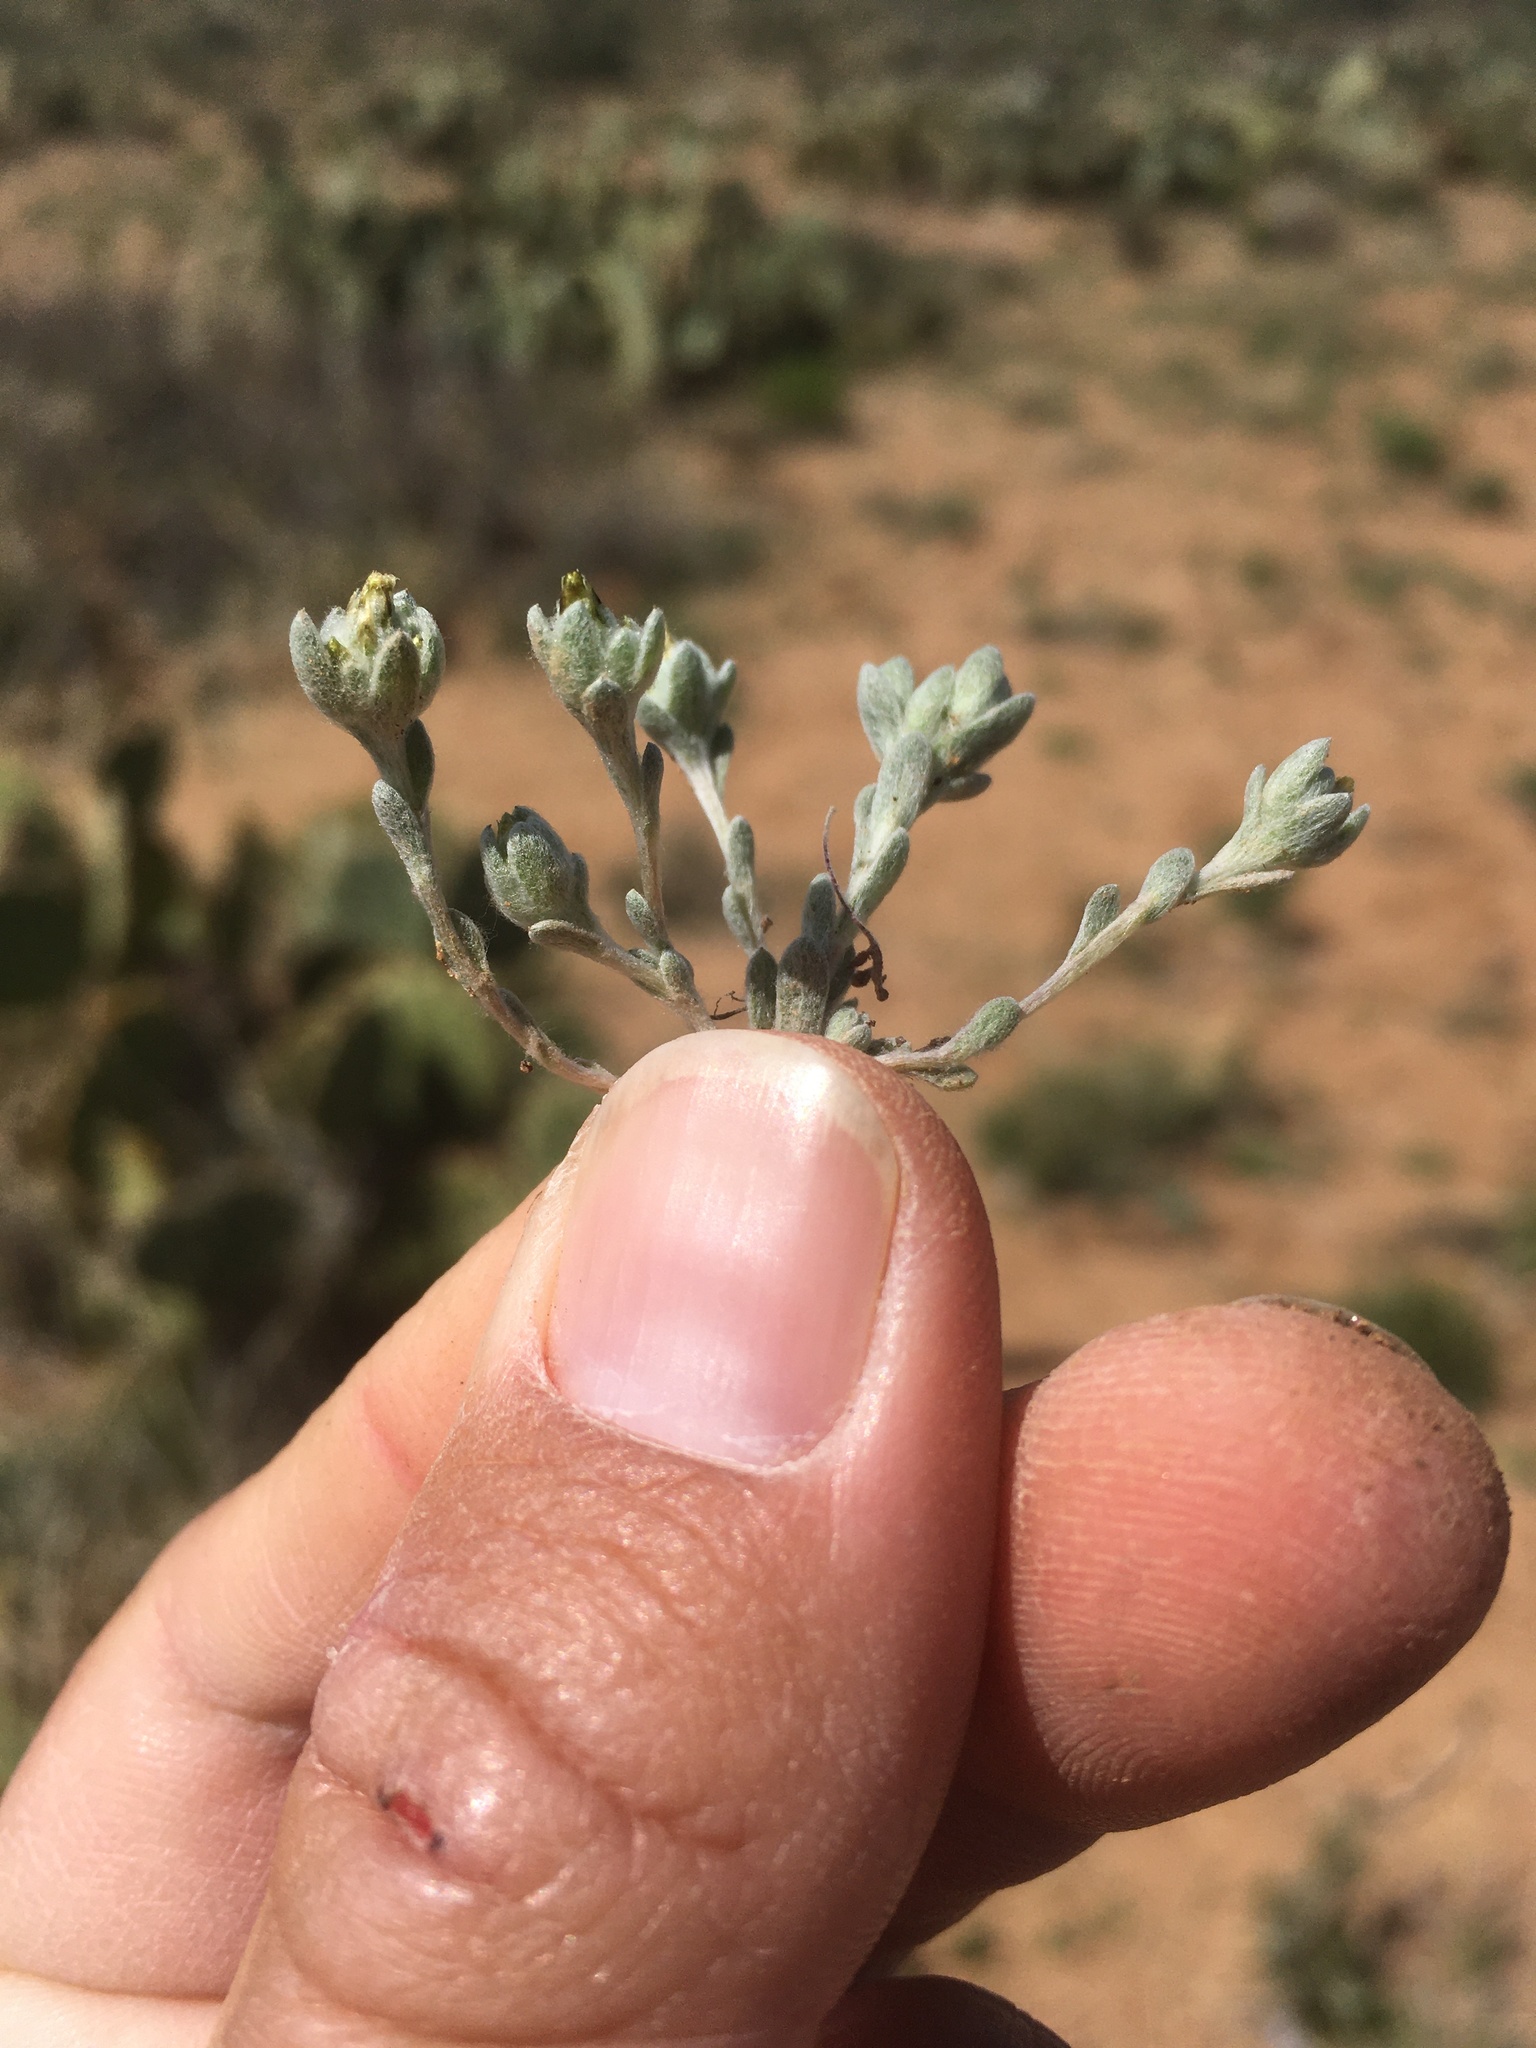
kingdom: Plantae
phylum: Tracheophyta
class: Magnoliopsida
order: Asterales
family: Asteraceae
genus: Logfia
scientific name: Logfia depressa
